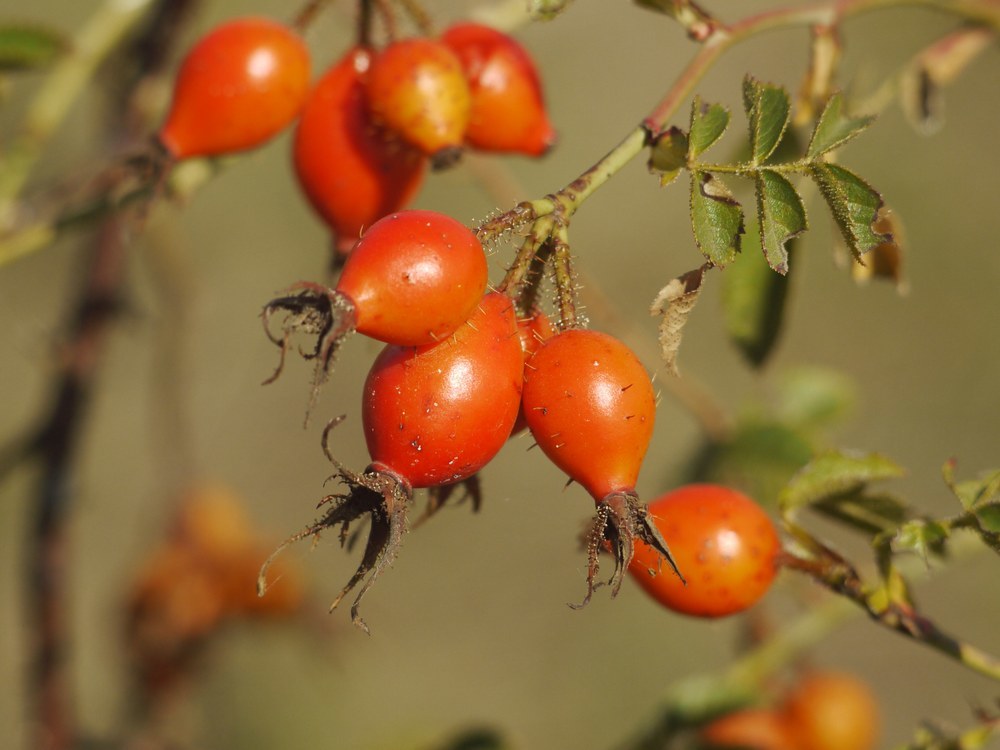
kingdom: Plantae
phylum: Tracheophyta
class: Magnoliopsida
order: Rosales
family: Rosaceae
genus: Rosa
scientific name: Rosa rubiginosa
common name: Sweet-briar
